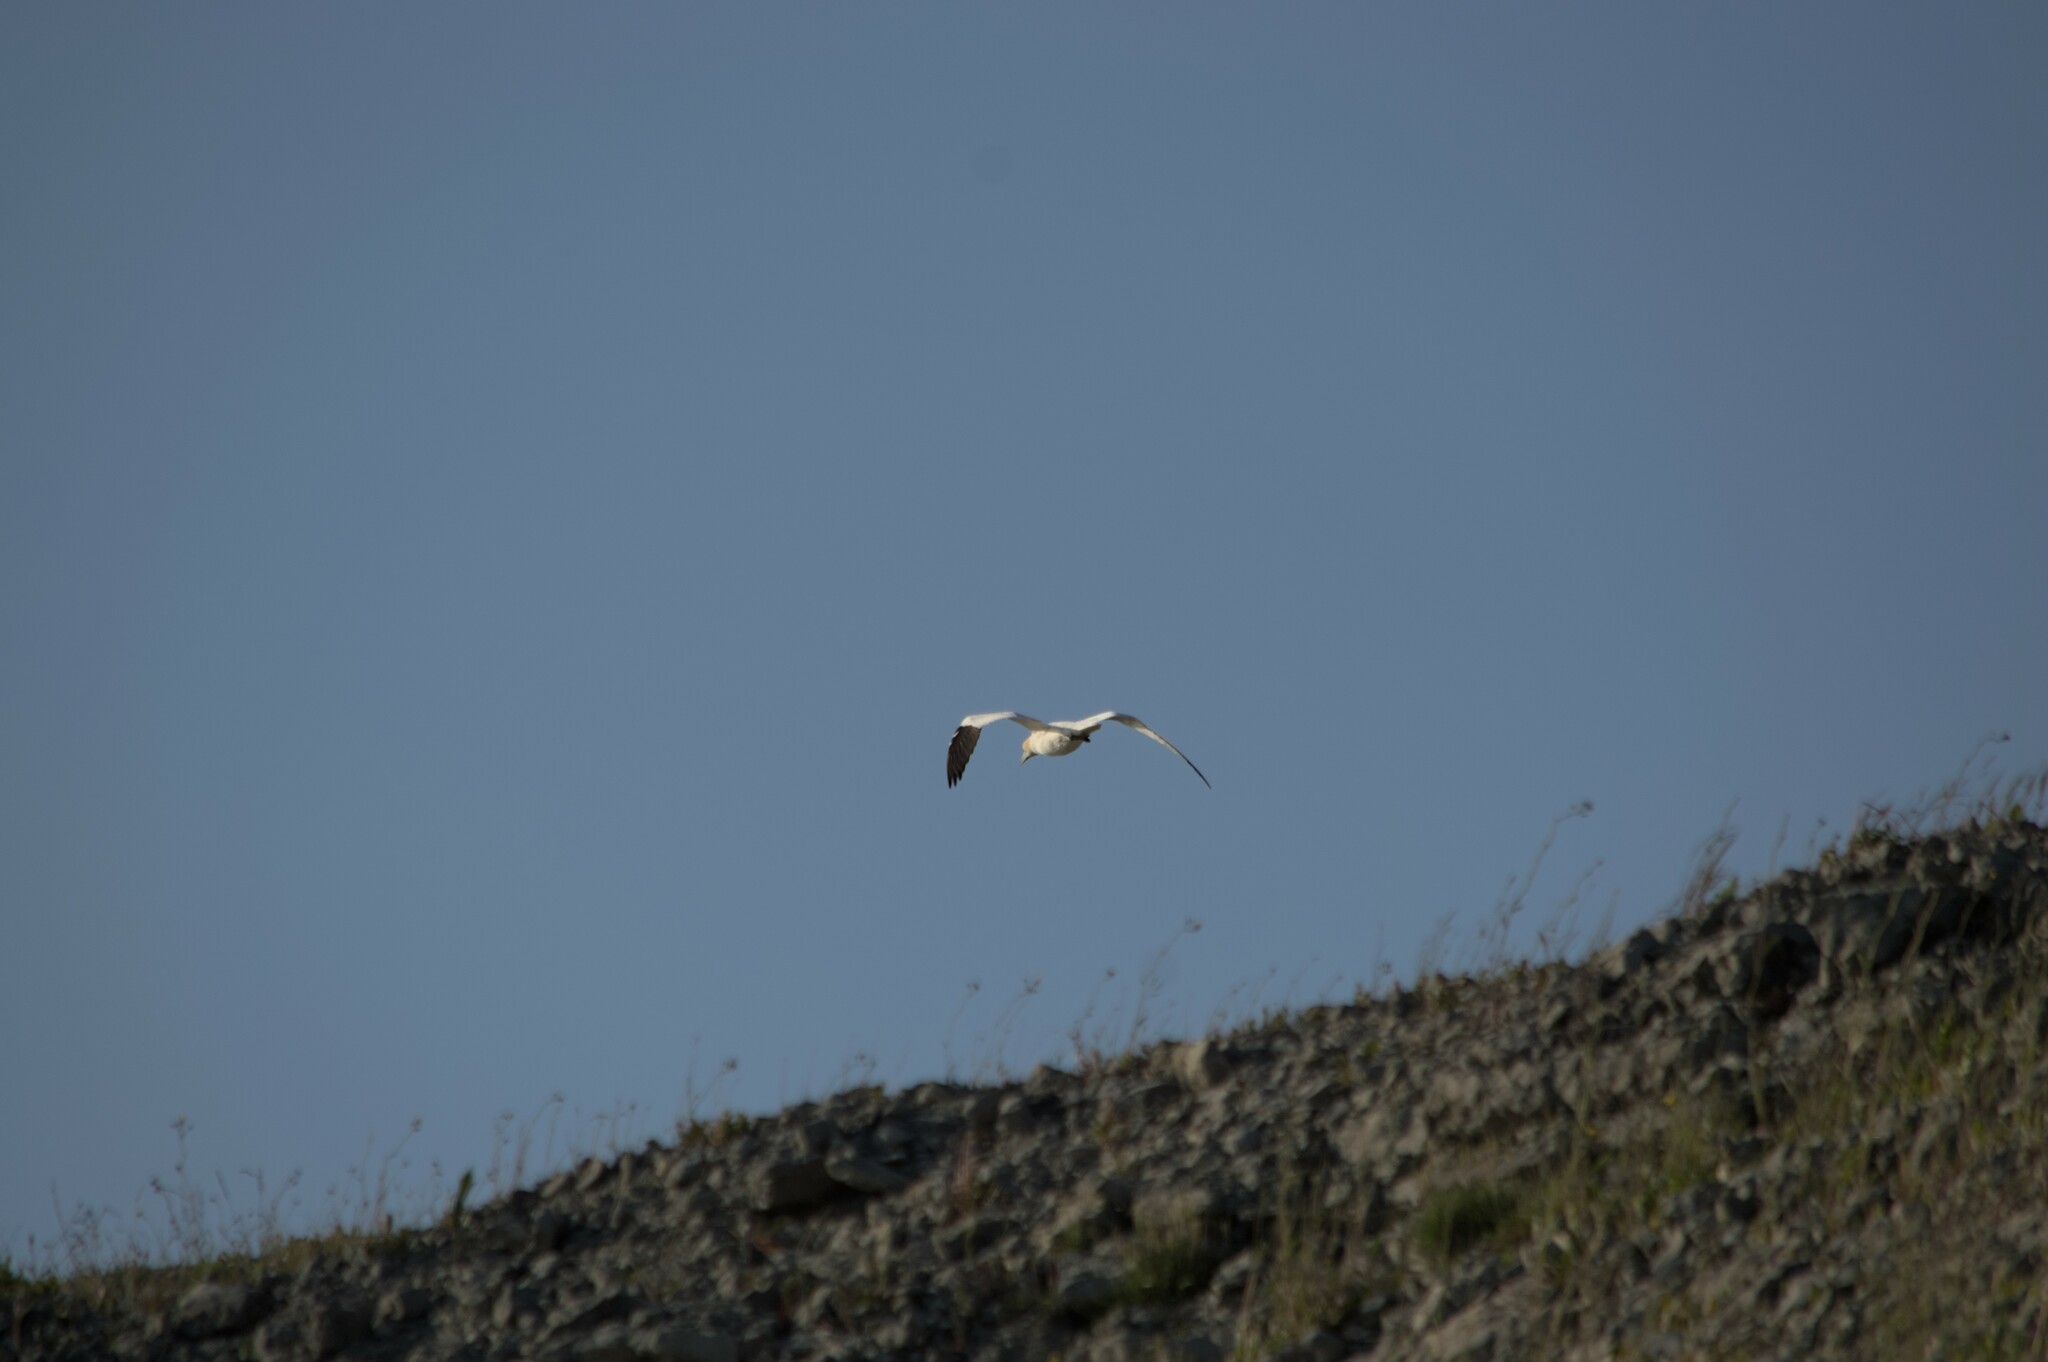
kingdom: Animalia
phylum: Chordata
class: Aves
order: Suliformes
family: Sulidae
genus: Morus
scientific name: Morus bassanus
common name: Northern gannet
